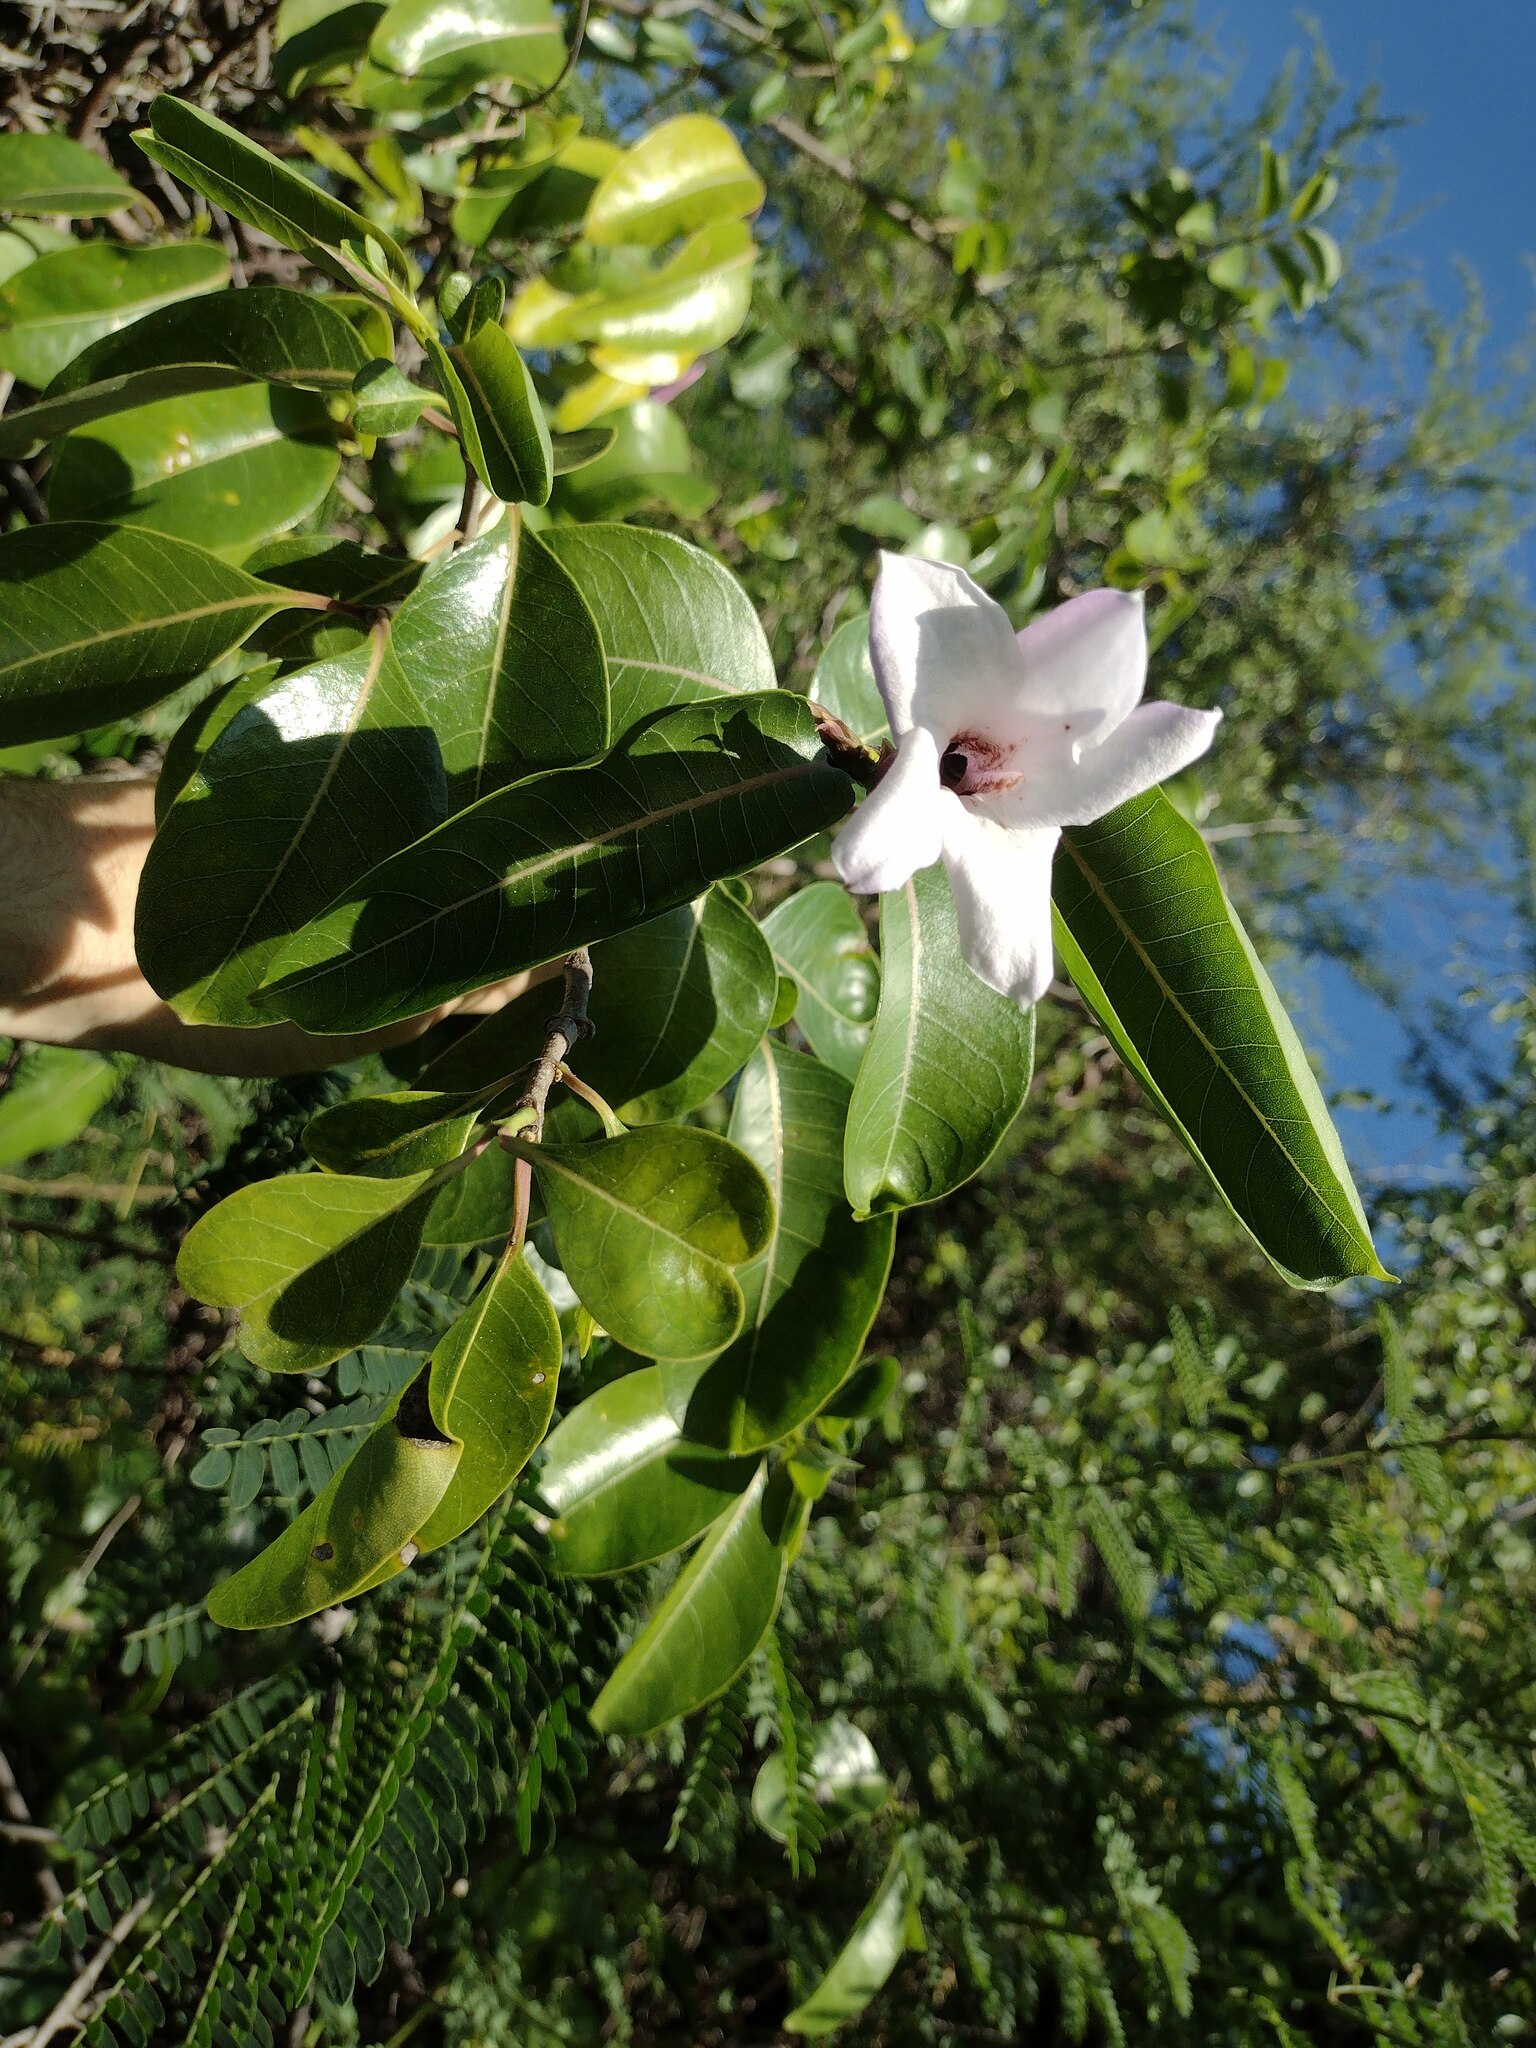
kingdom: Plantae
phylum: Tracheophyta
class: Magnoliopsida
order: Gentianales
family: Apocynaceae
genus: Cryptostegia
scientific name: Cryptostegia grandiflora
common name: Palay rubbervine
